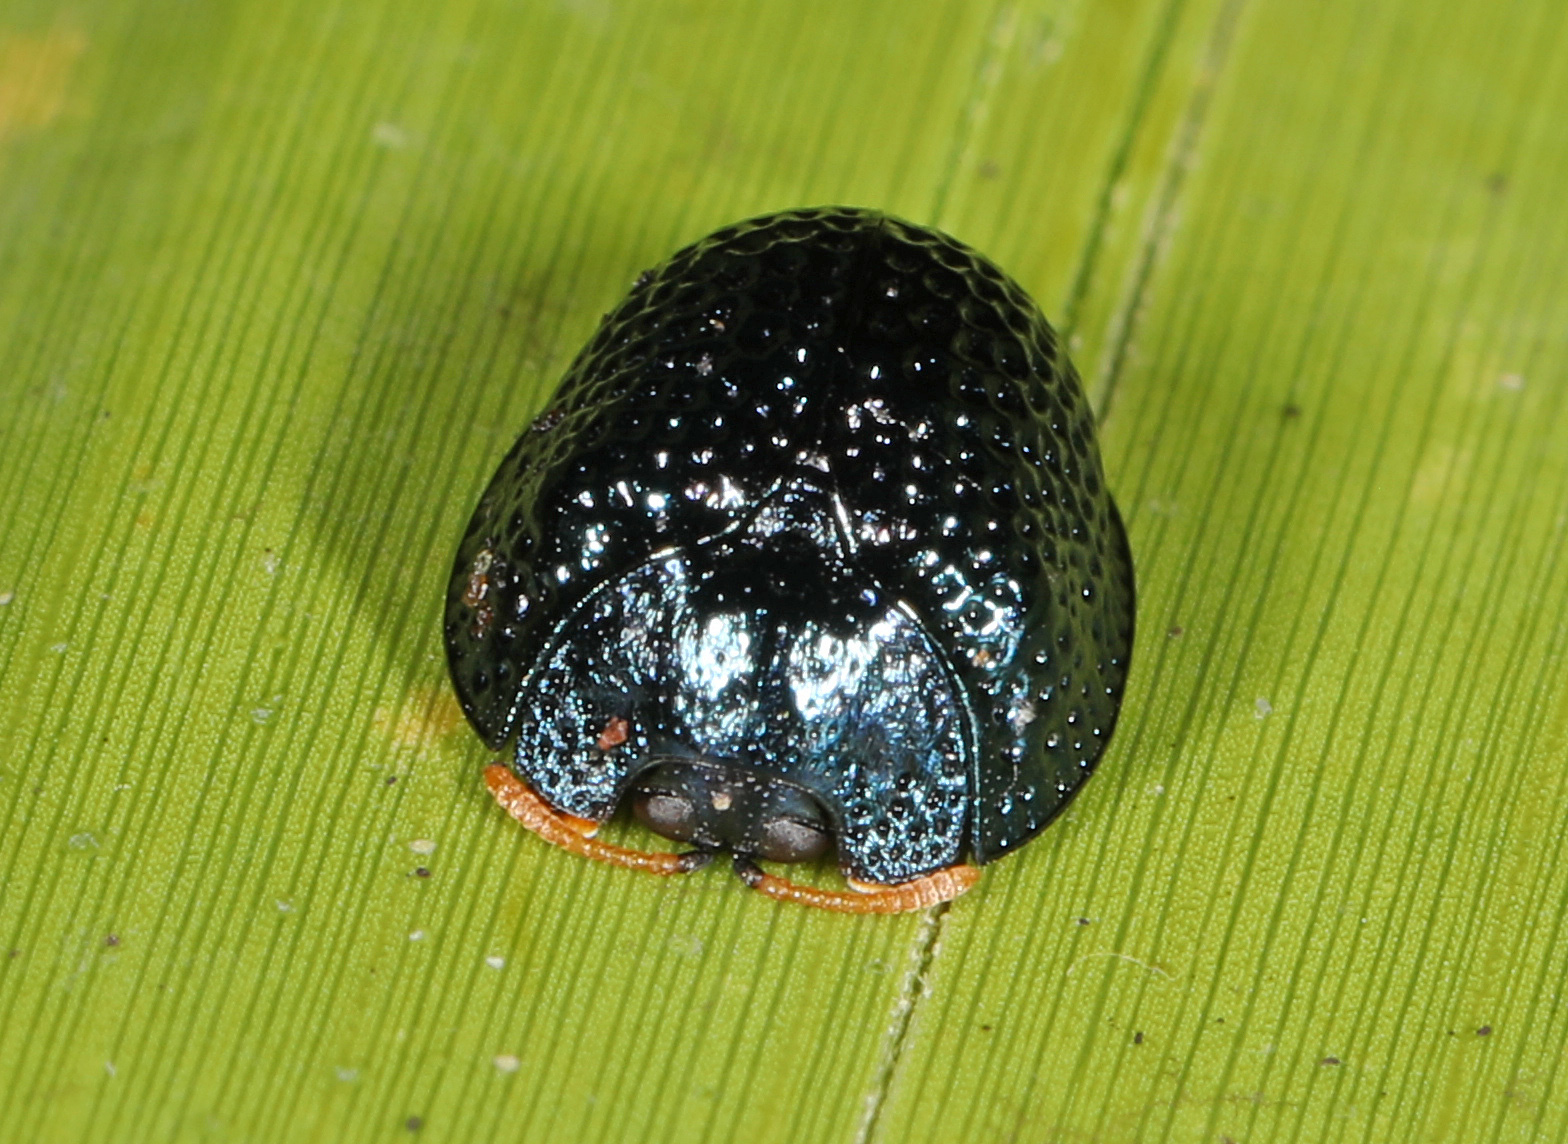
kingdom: Animalia
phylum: Arthropoda
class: Insecta
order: Coleoptera
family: Chrysomelidae
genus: Hemisphaerota
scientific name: Hemisphaerota cyanea
